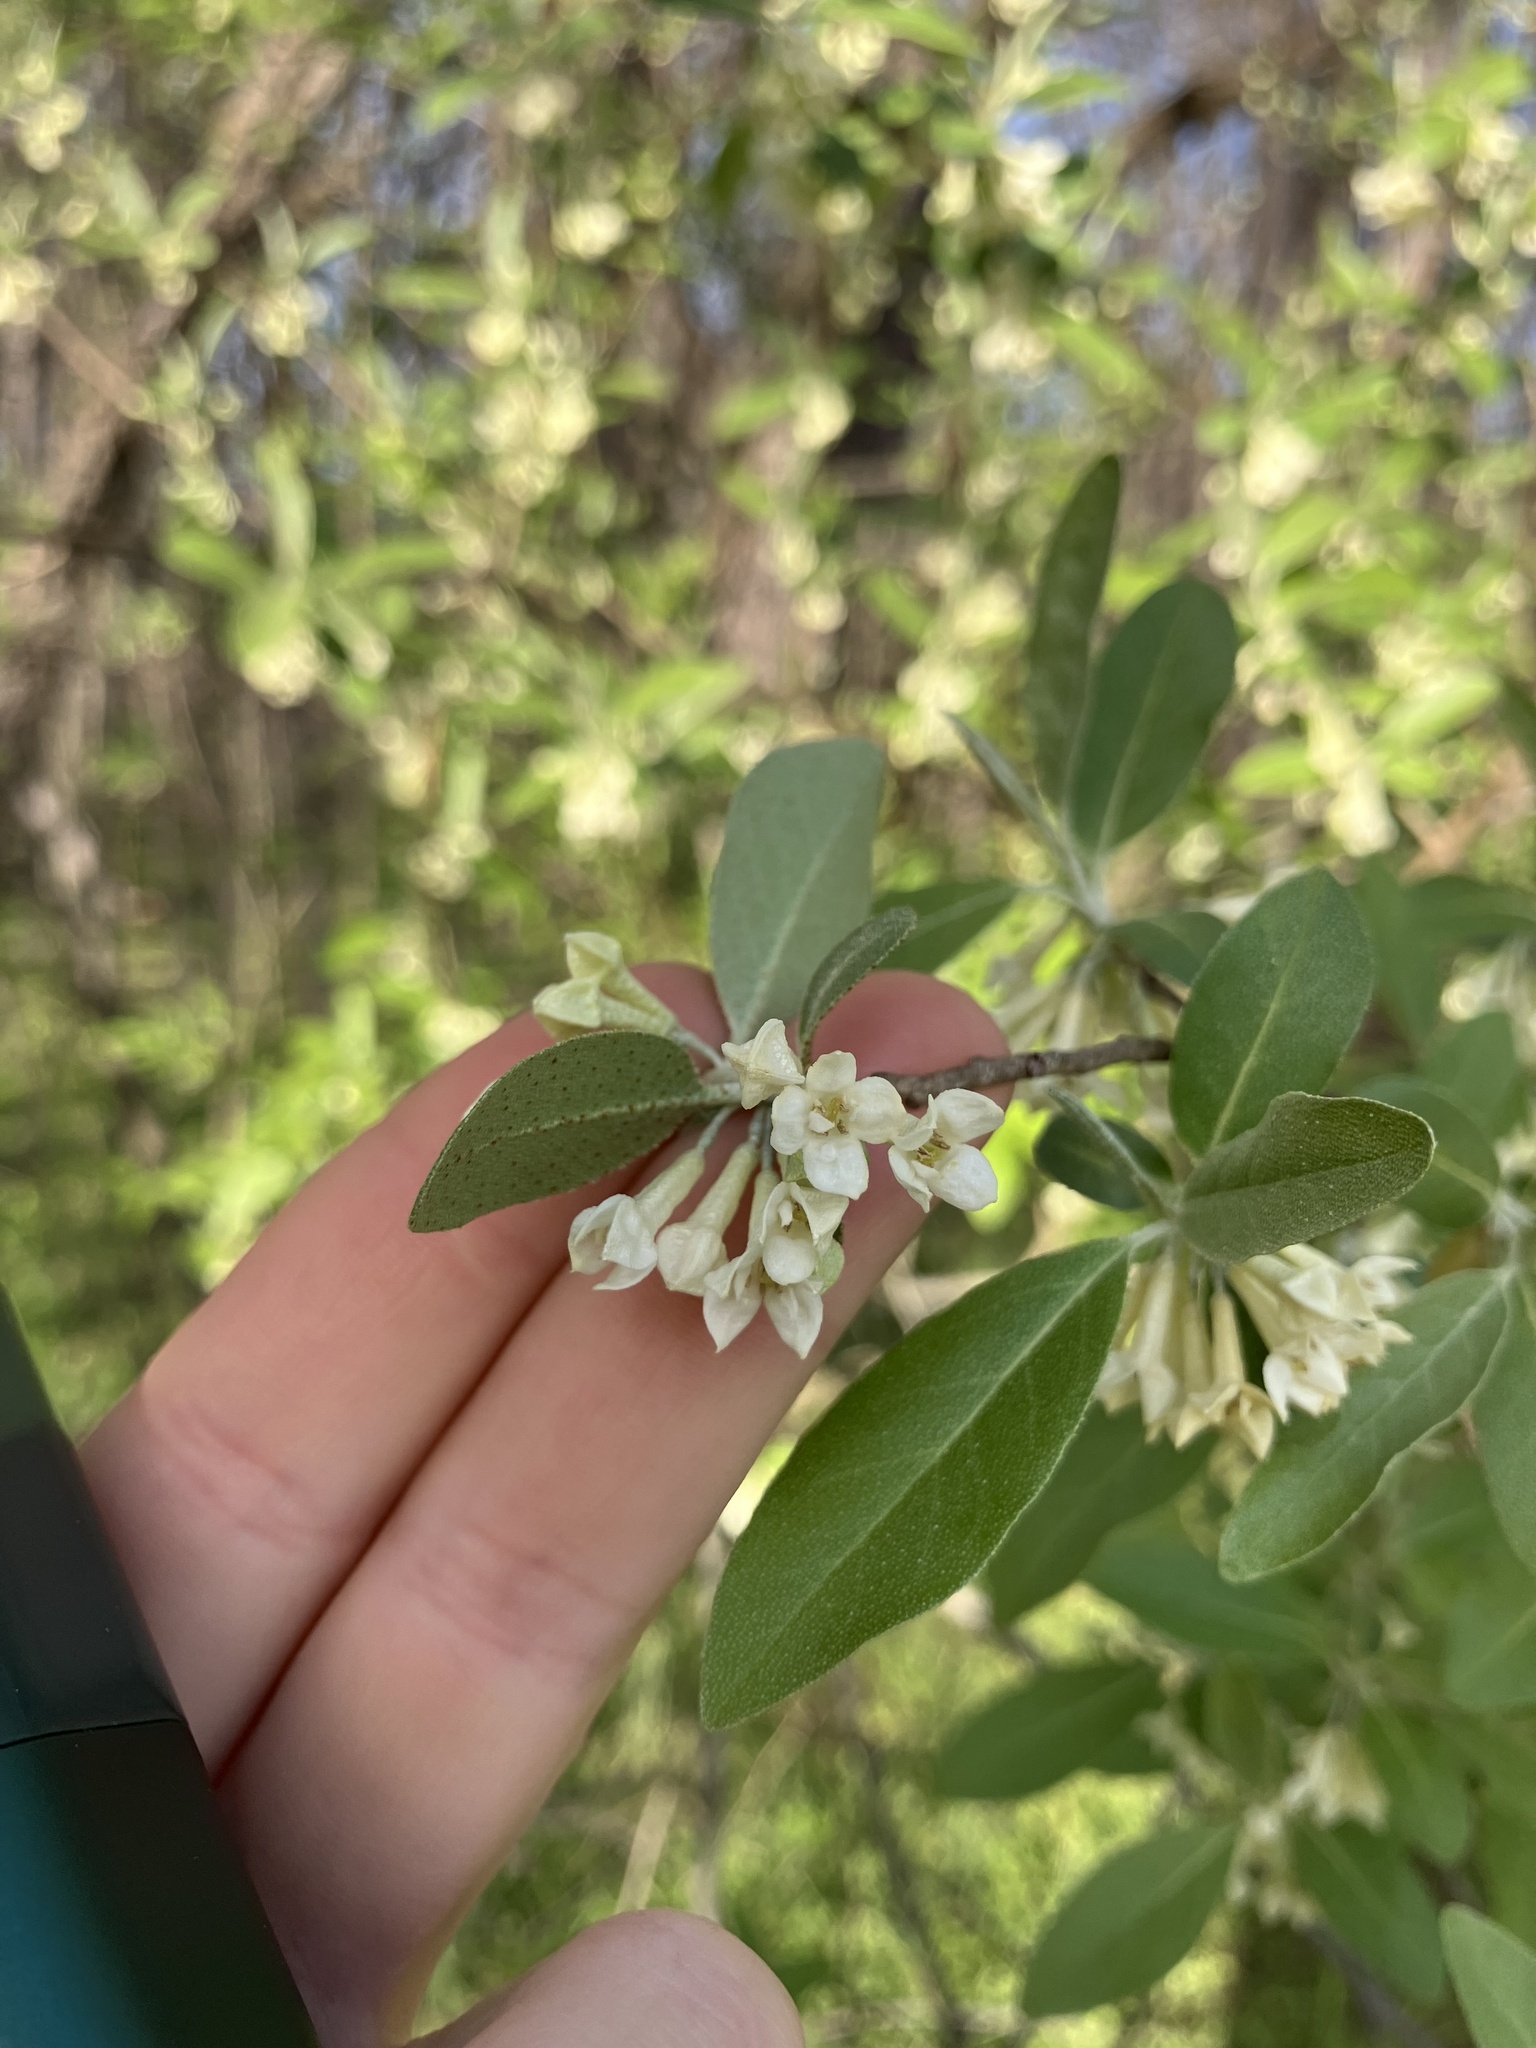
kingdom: Plantae
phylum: Tracheophyta
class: Magnoliopsida
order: Rosales
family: Elaeagnaceae
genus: Elaeagnus
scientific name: Elaeagnus umbellata
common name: Autumn olive
